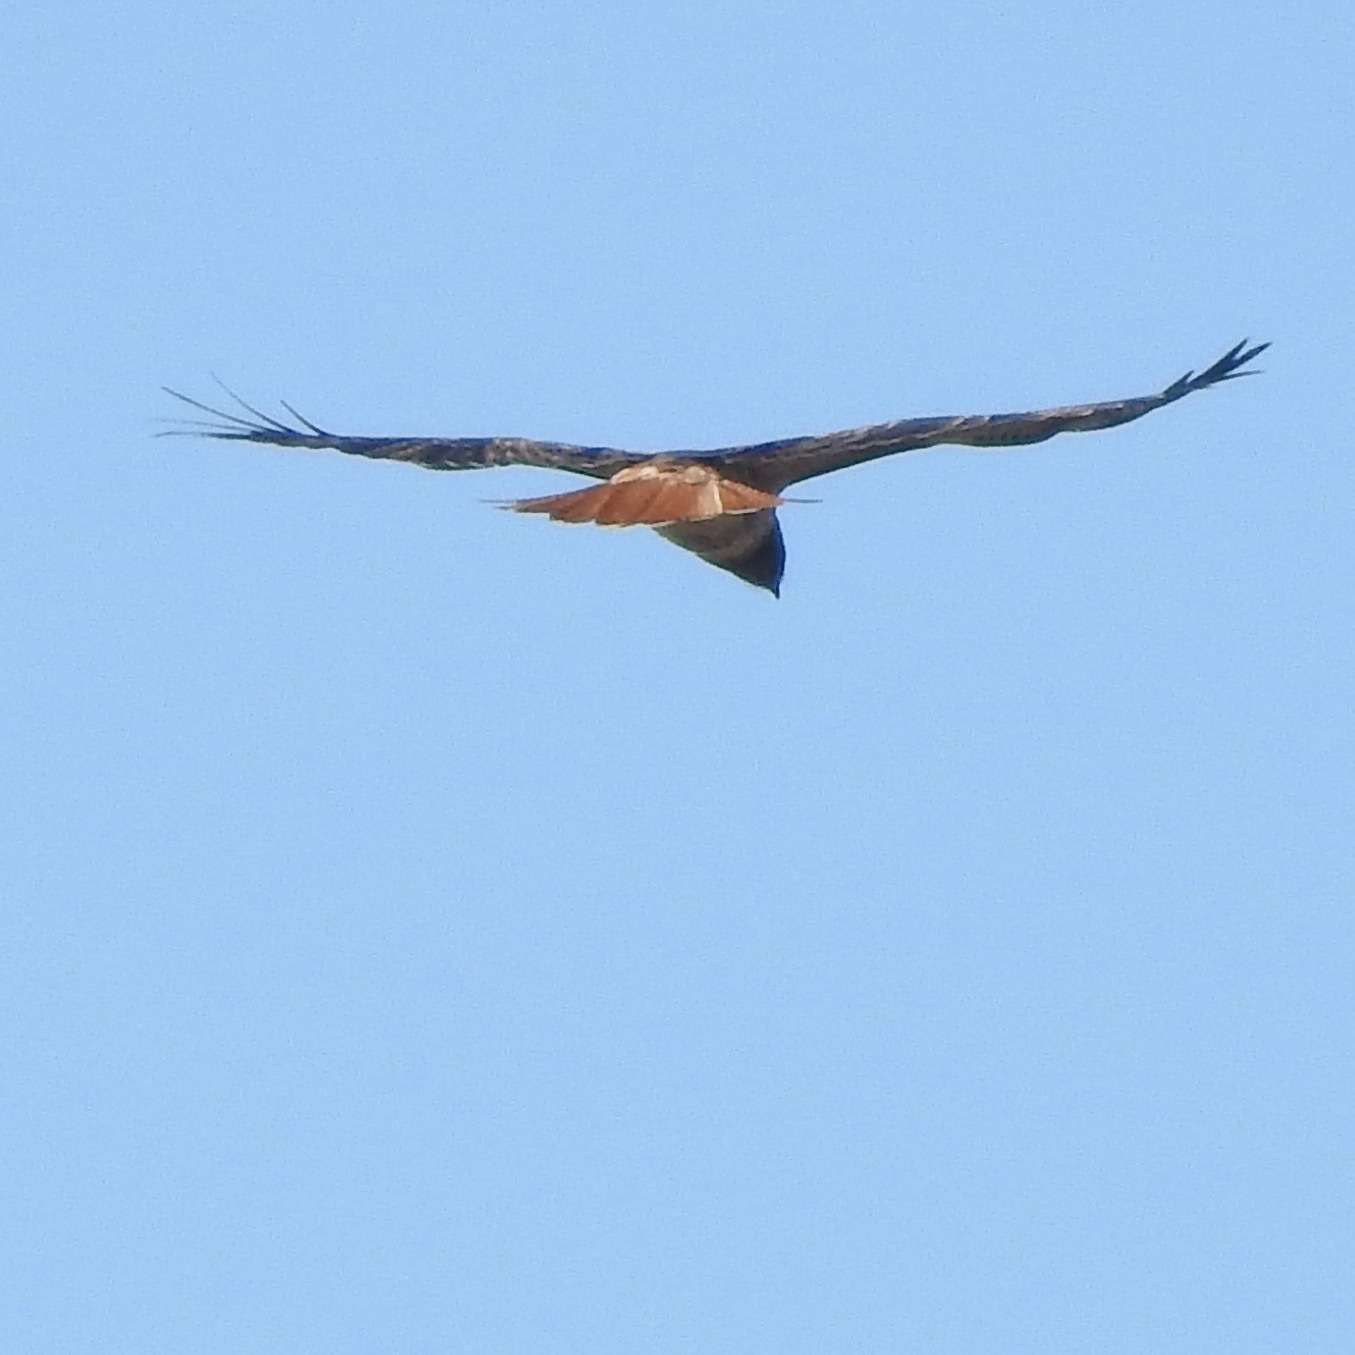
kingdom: Animalia
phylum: Chordata
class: Aves
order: Accipitriformes
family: Accipitridae
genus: Buteo
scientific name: Buteo jamaicensis
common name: Red-tailed hawk
